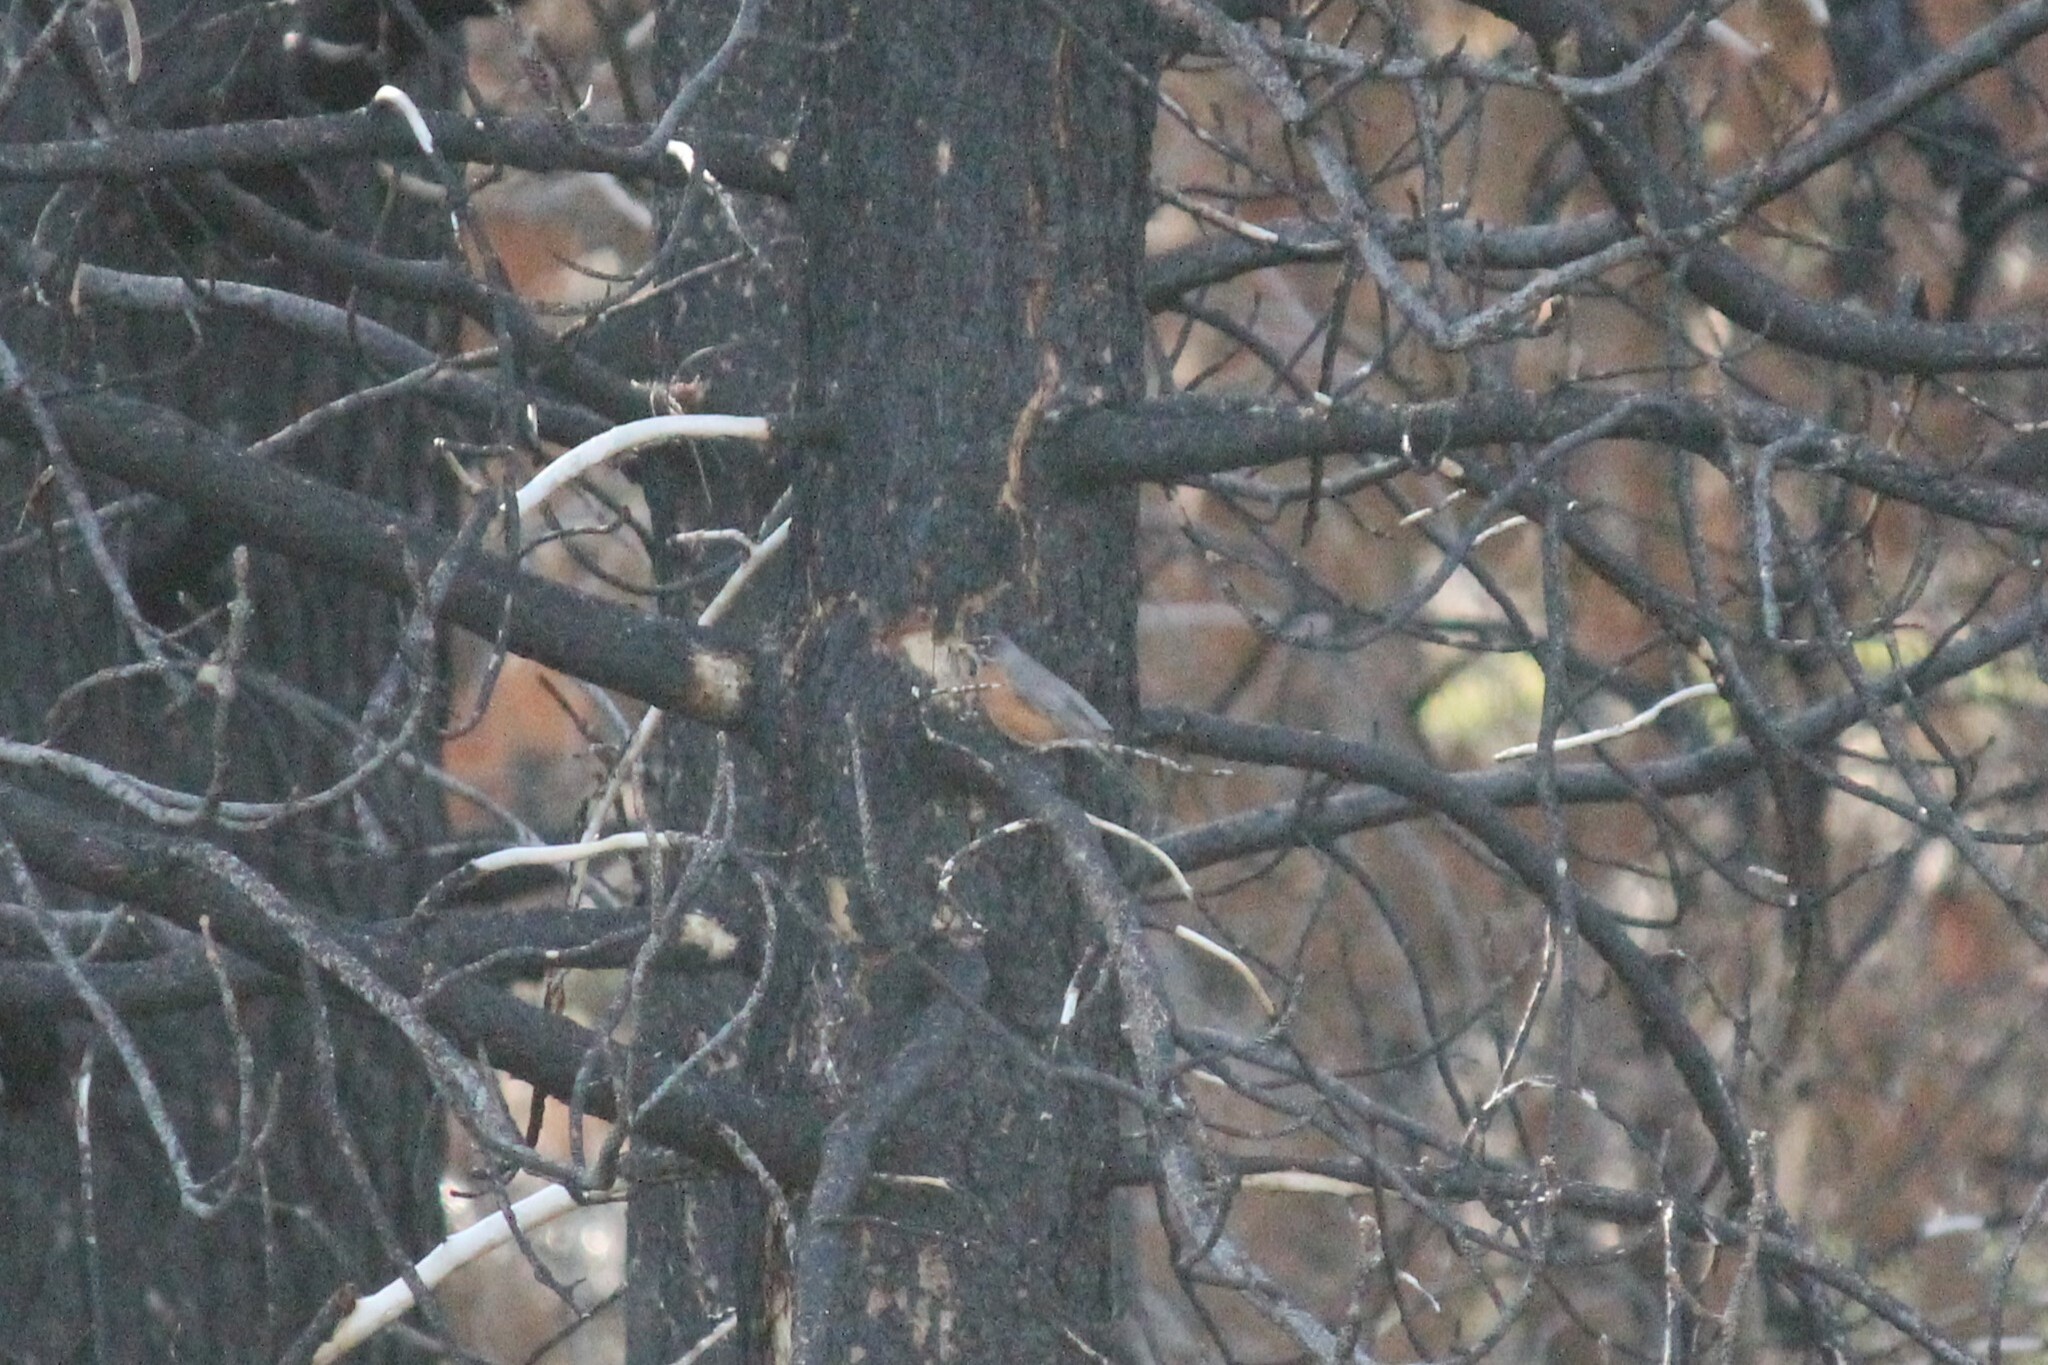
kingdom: Animalia
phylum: Chordata
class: Aves
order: Passeriformes
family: Turdidae
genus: Turdus
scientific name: Turdus migratorius
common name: American robin
